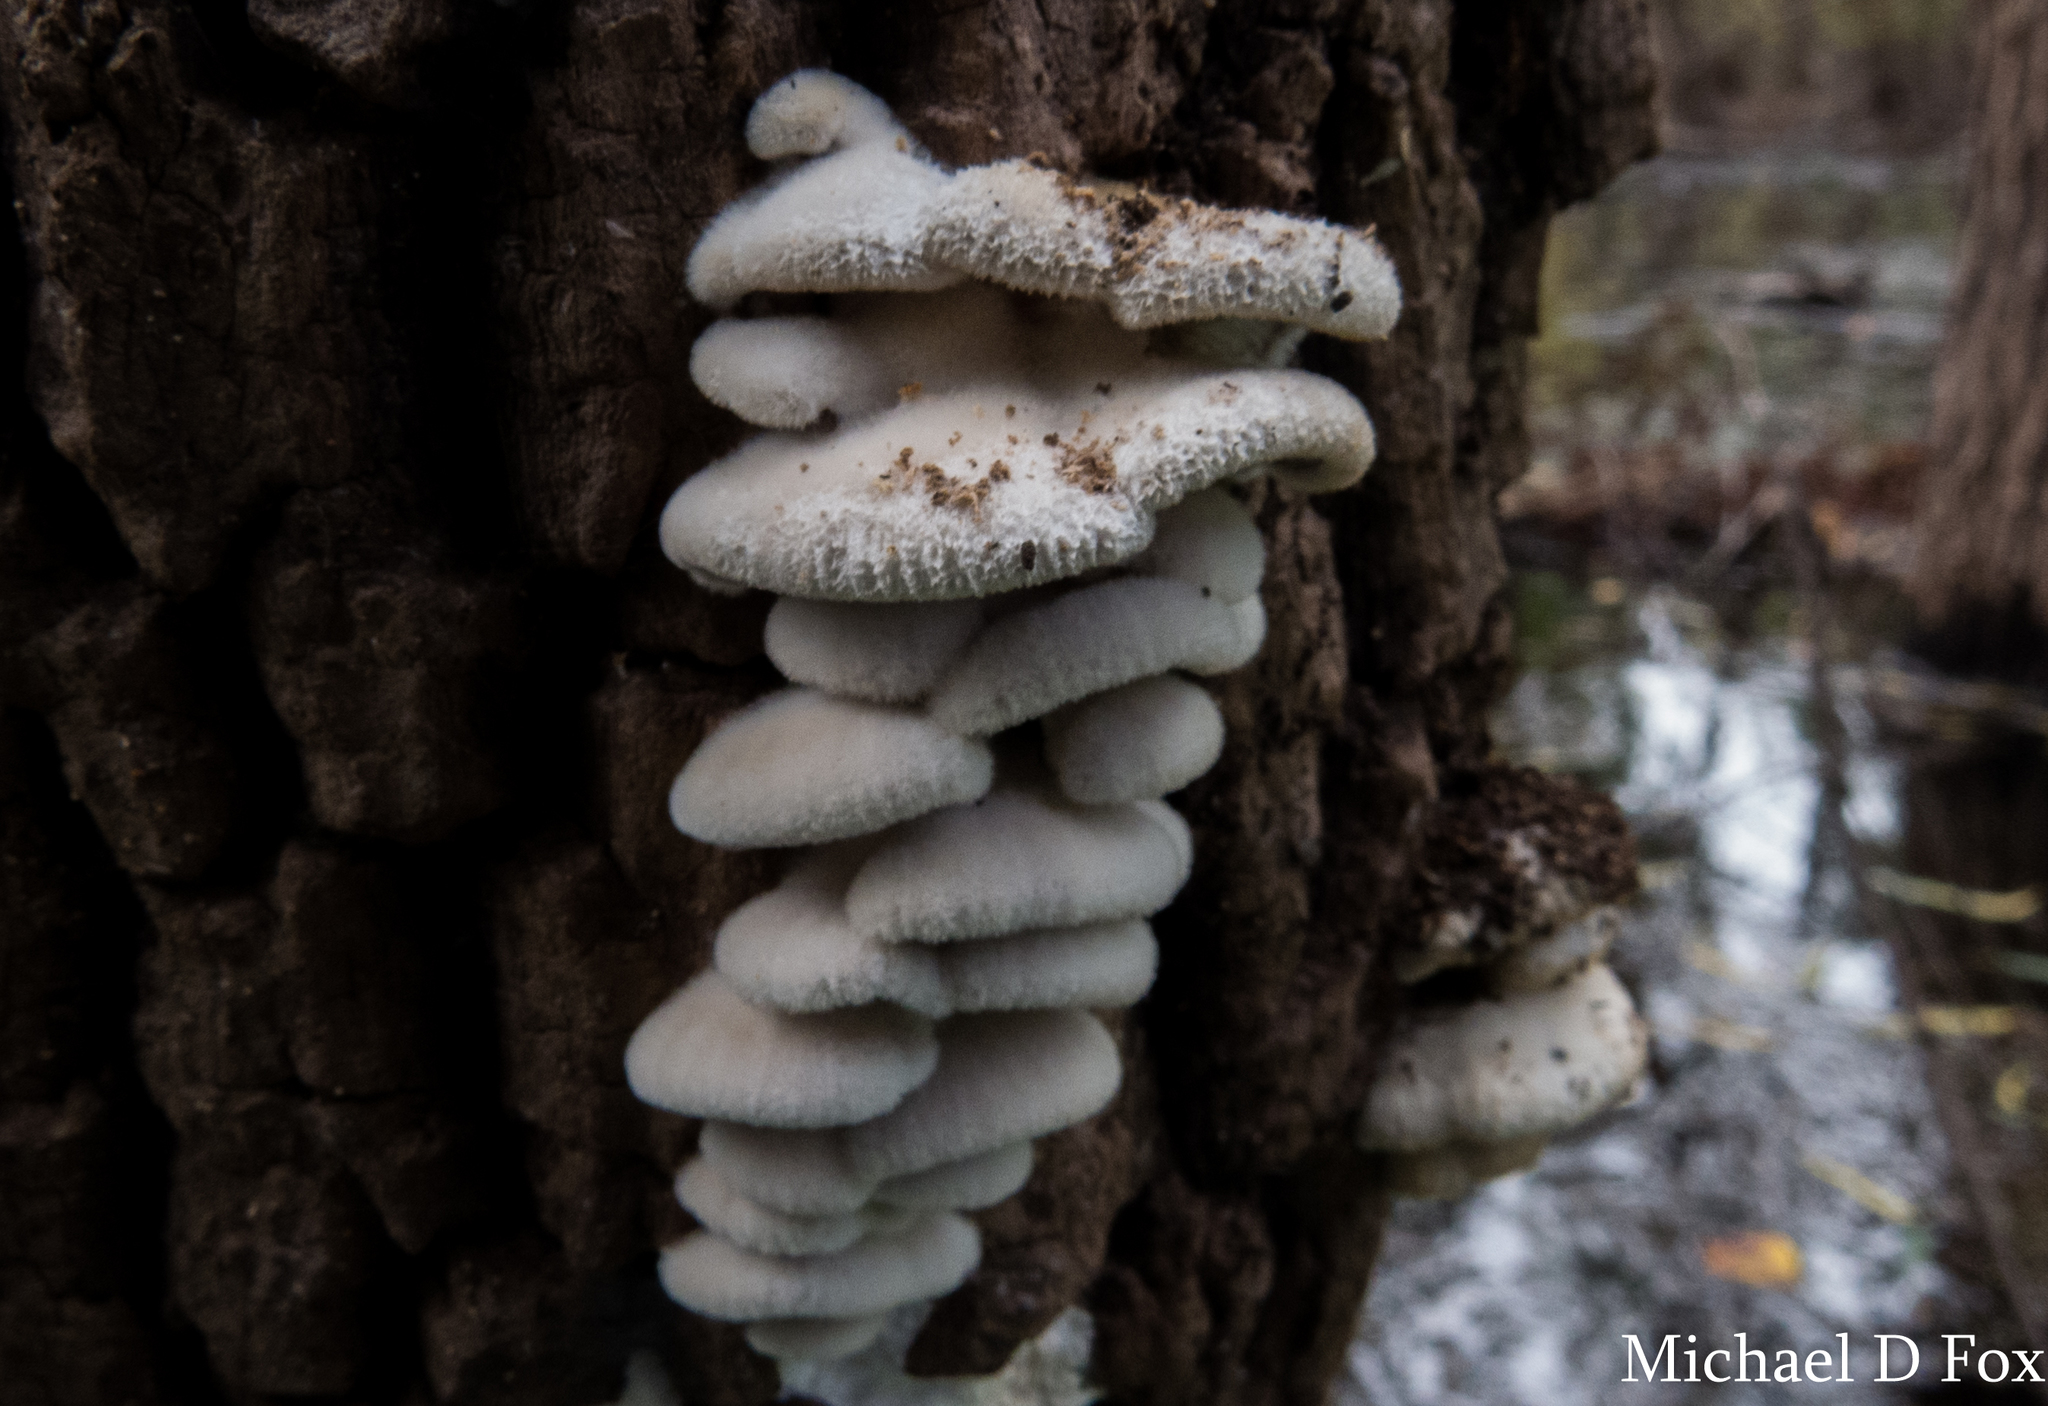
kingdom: Fungi
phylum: Basidiomycota
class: Agaricomycetes
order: Agaricales
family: Schizophyllaceae
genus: Schizophyllum
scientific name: Schizophyllum commune
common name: Common porecrust
